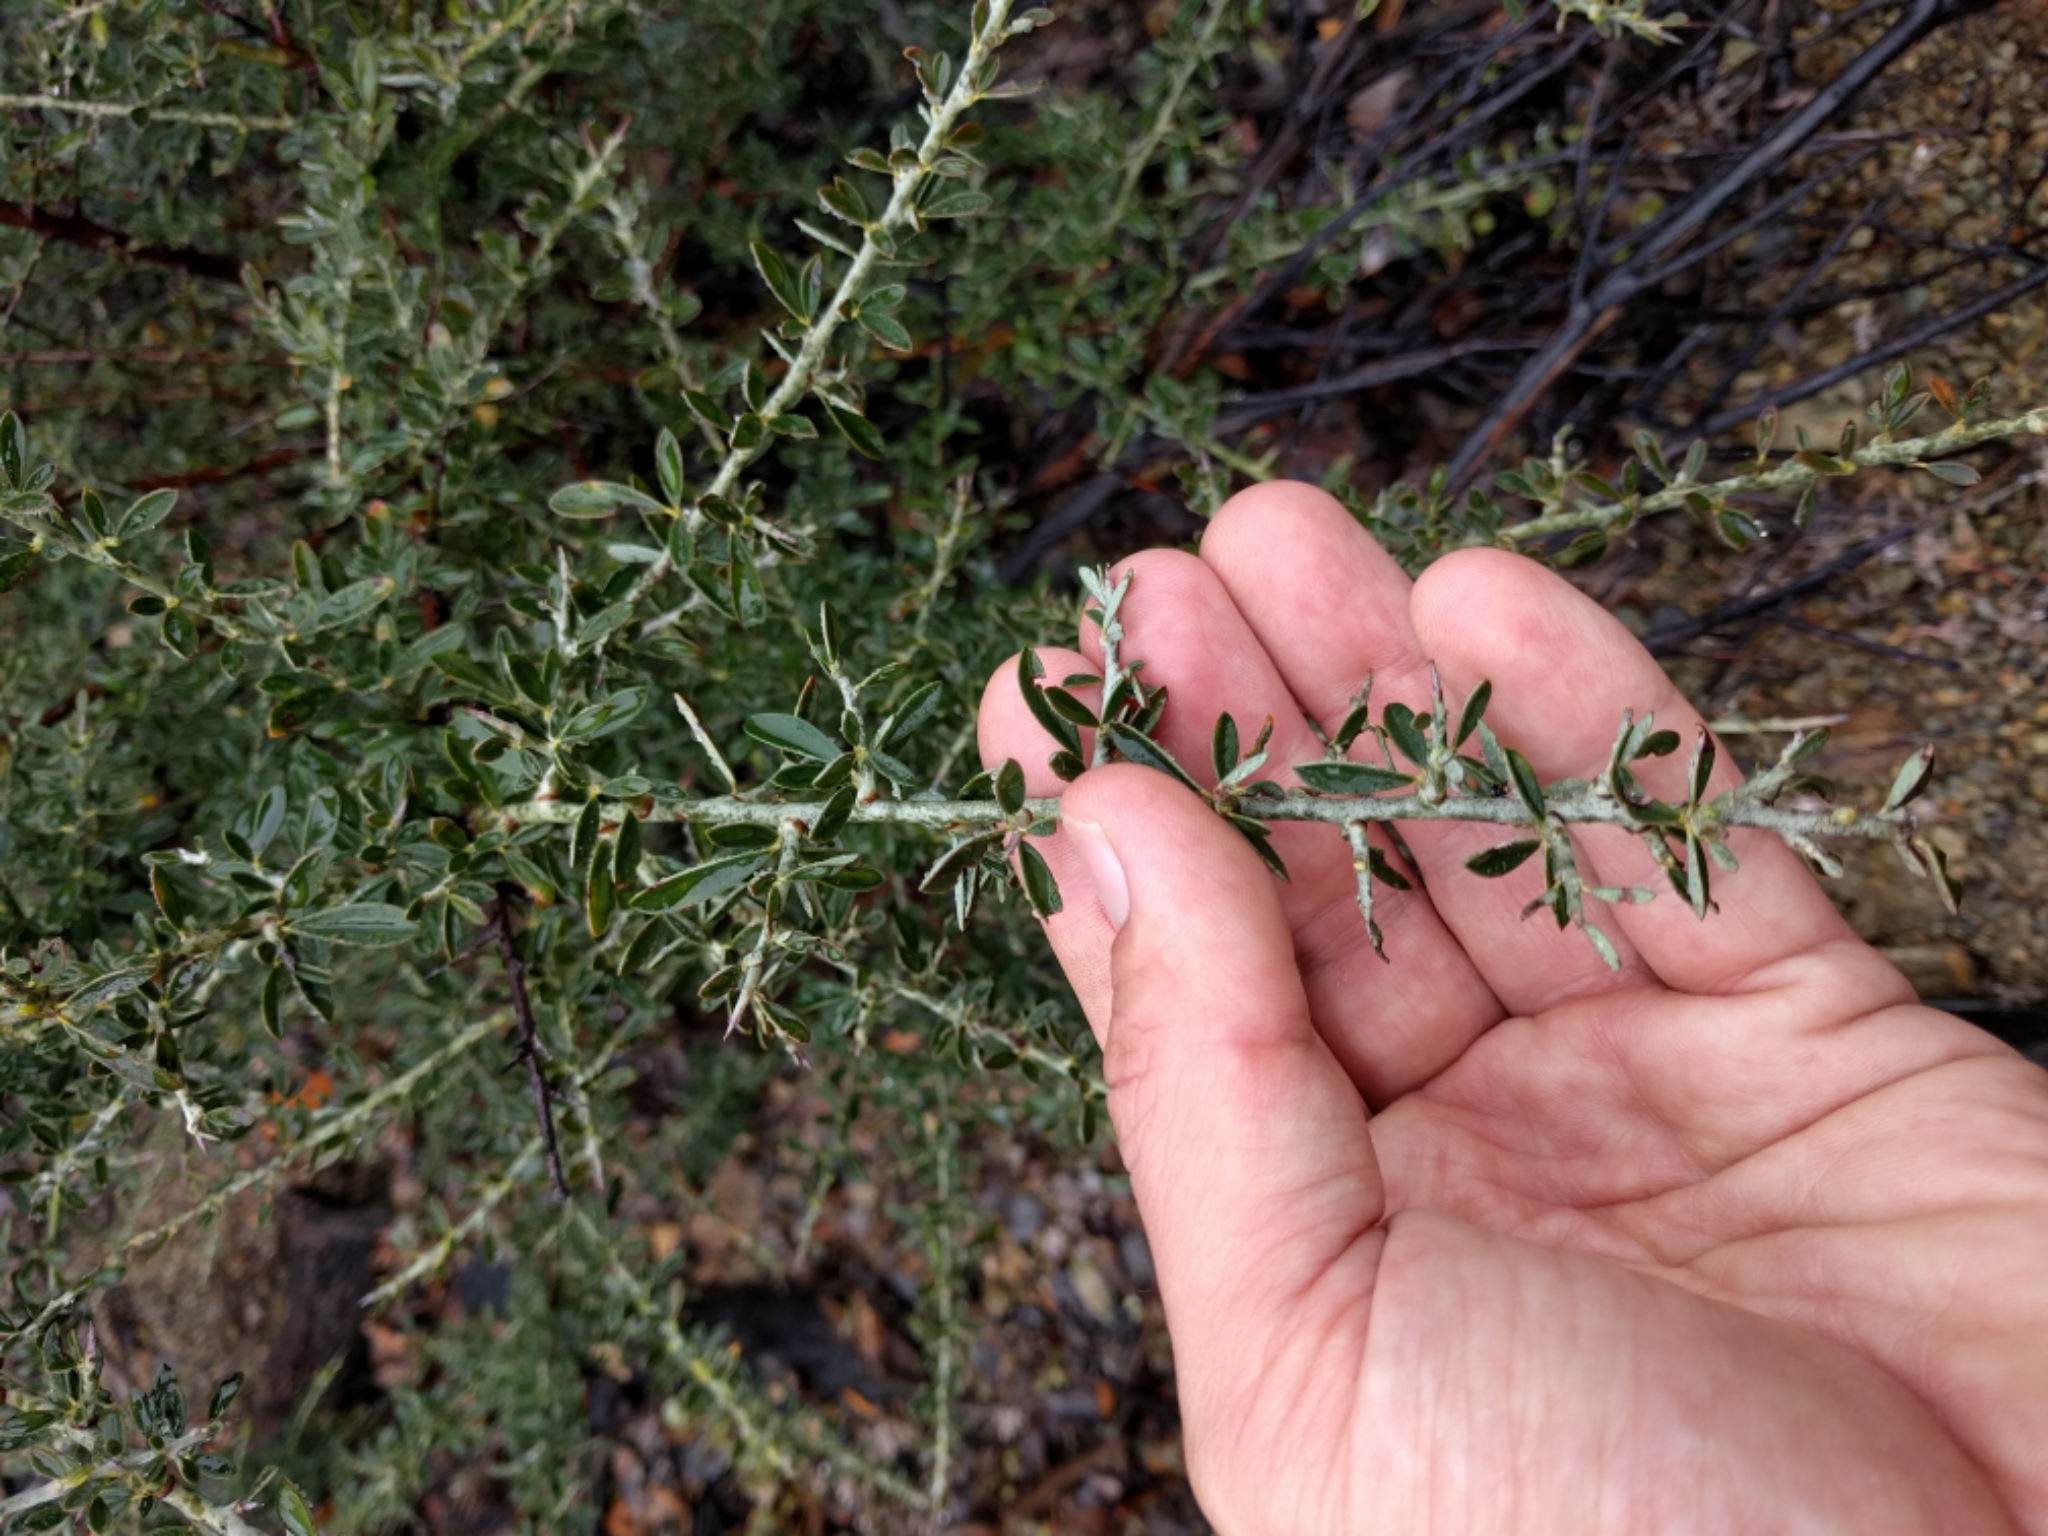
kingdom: Plantae
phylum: Tracheophyta
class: Magnoliopsida
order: Fabales
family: Fabaceae
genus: Pickeringia
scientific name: Pickeringia montana
